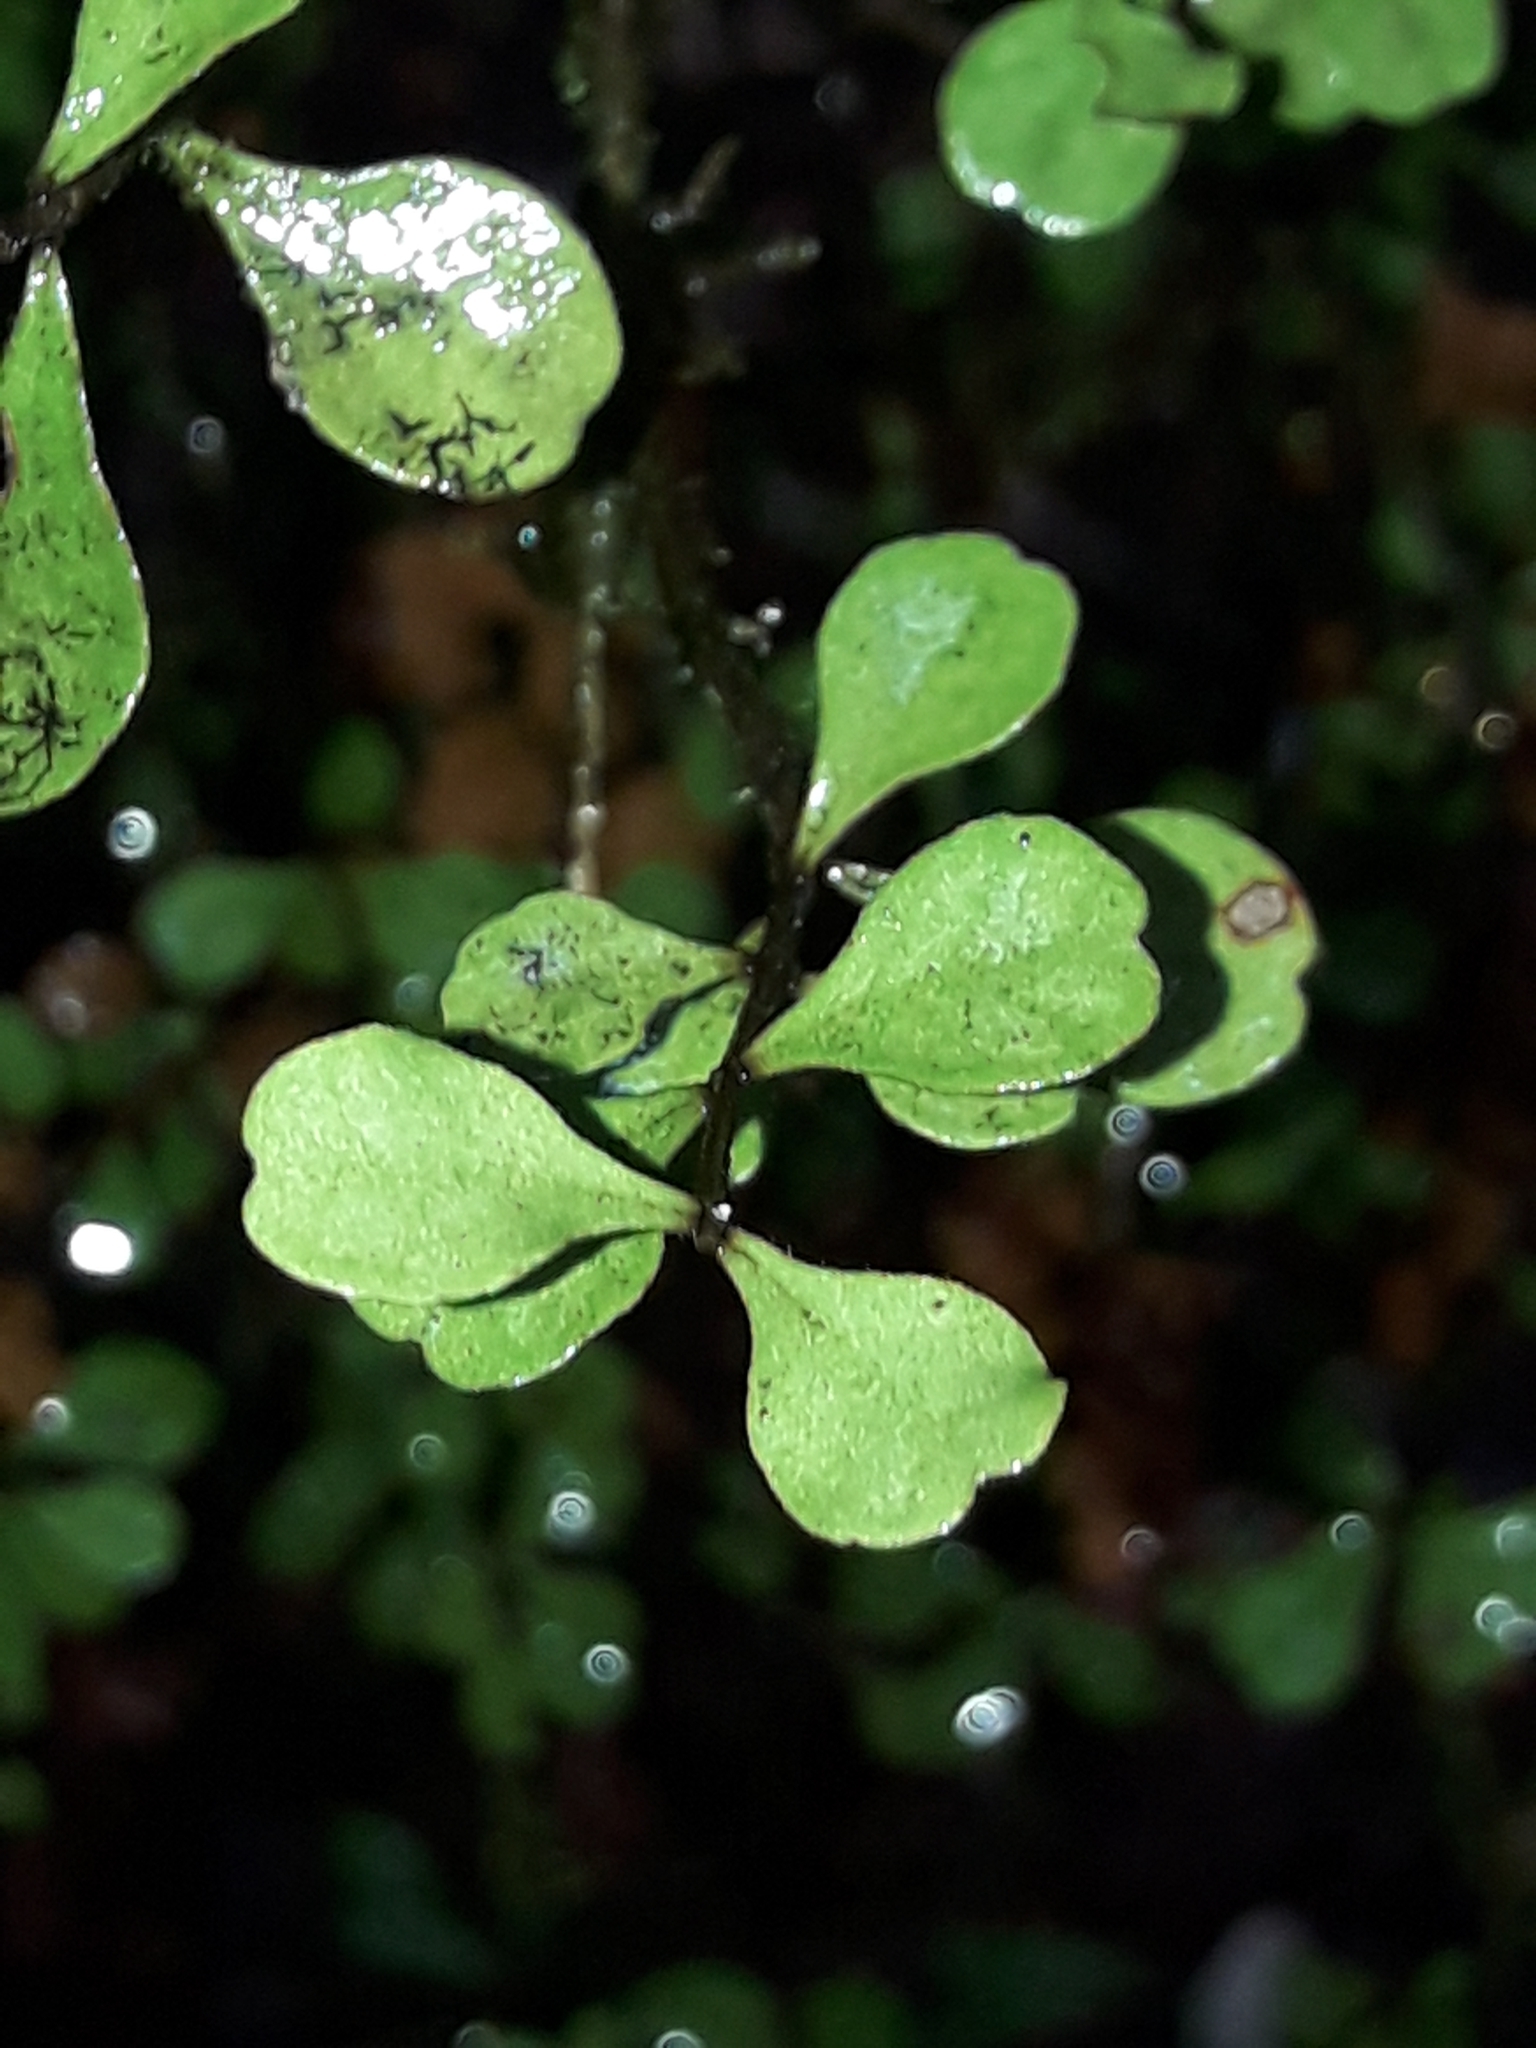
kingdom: Plantae
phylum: Tracheophyta
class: Magnoliopsida
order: Myrtales
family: Myrtaceae
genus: Lophomyrtus
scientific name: Lophomyrtus obcordata
